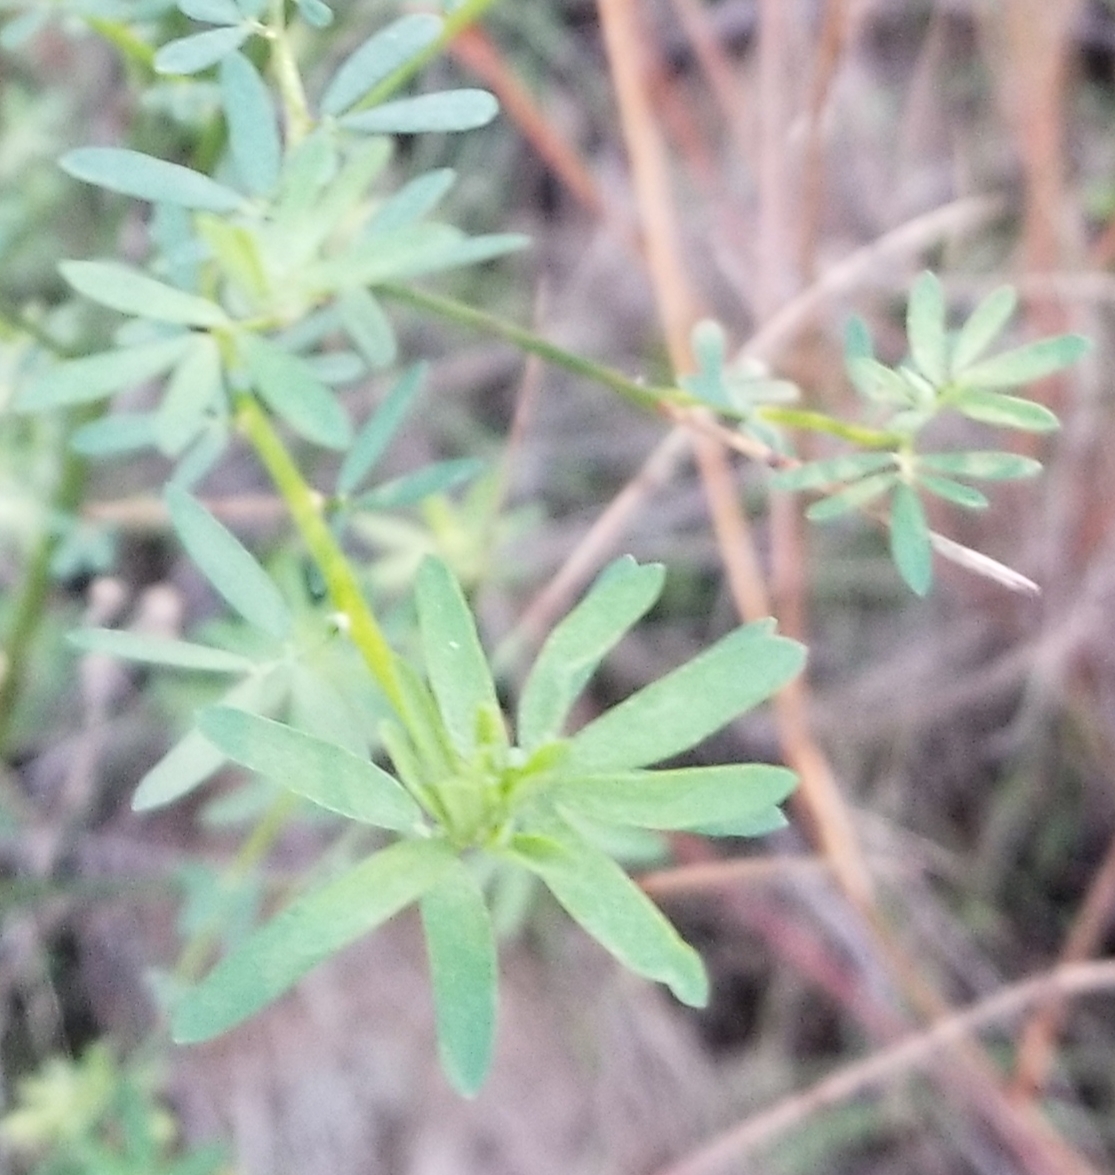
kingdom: Plantae
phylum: Tracheophyta
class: Magnoliopsida
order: Fabales
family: Fabaceae
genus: Acmispon
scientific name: Acmispon glaber
